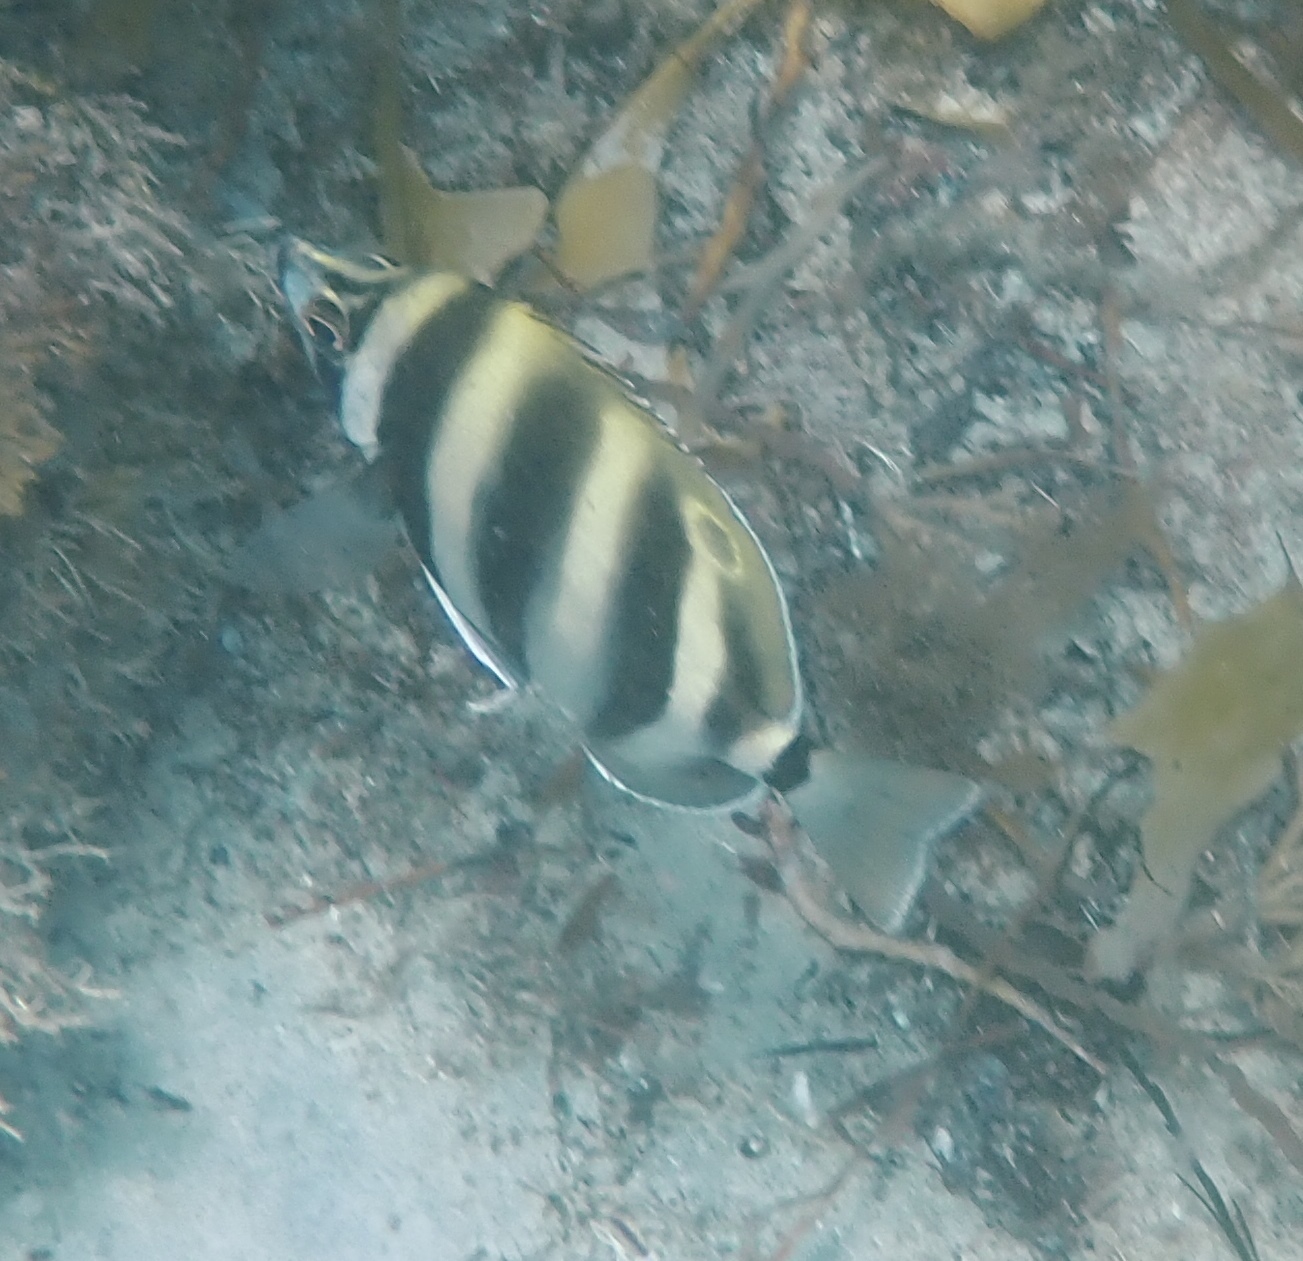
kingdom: Animalia
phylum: Chordata
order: Perciformes
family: Kyphosidae
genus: Tilodon
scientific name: Tilodon sexfasciatus
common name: Moonlighter
